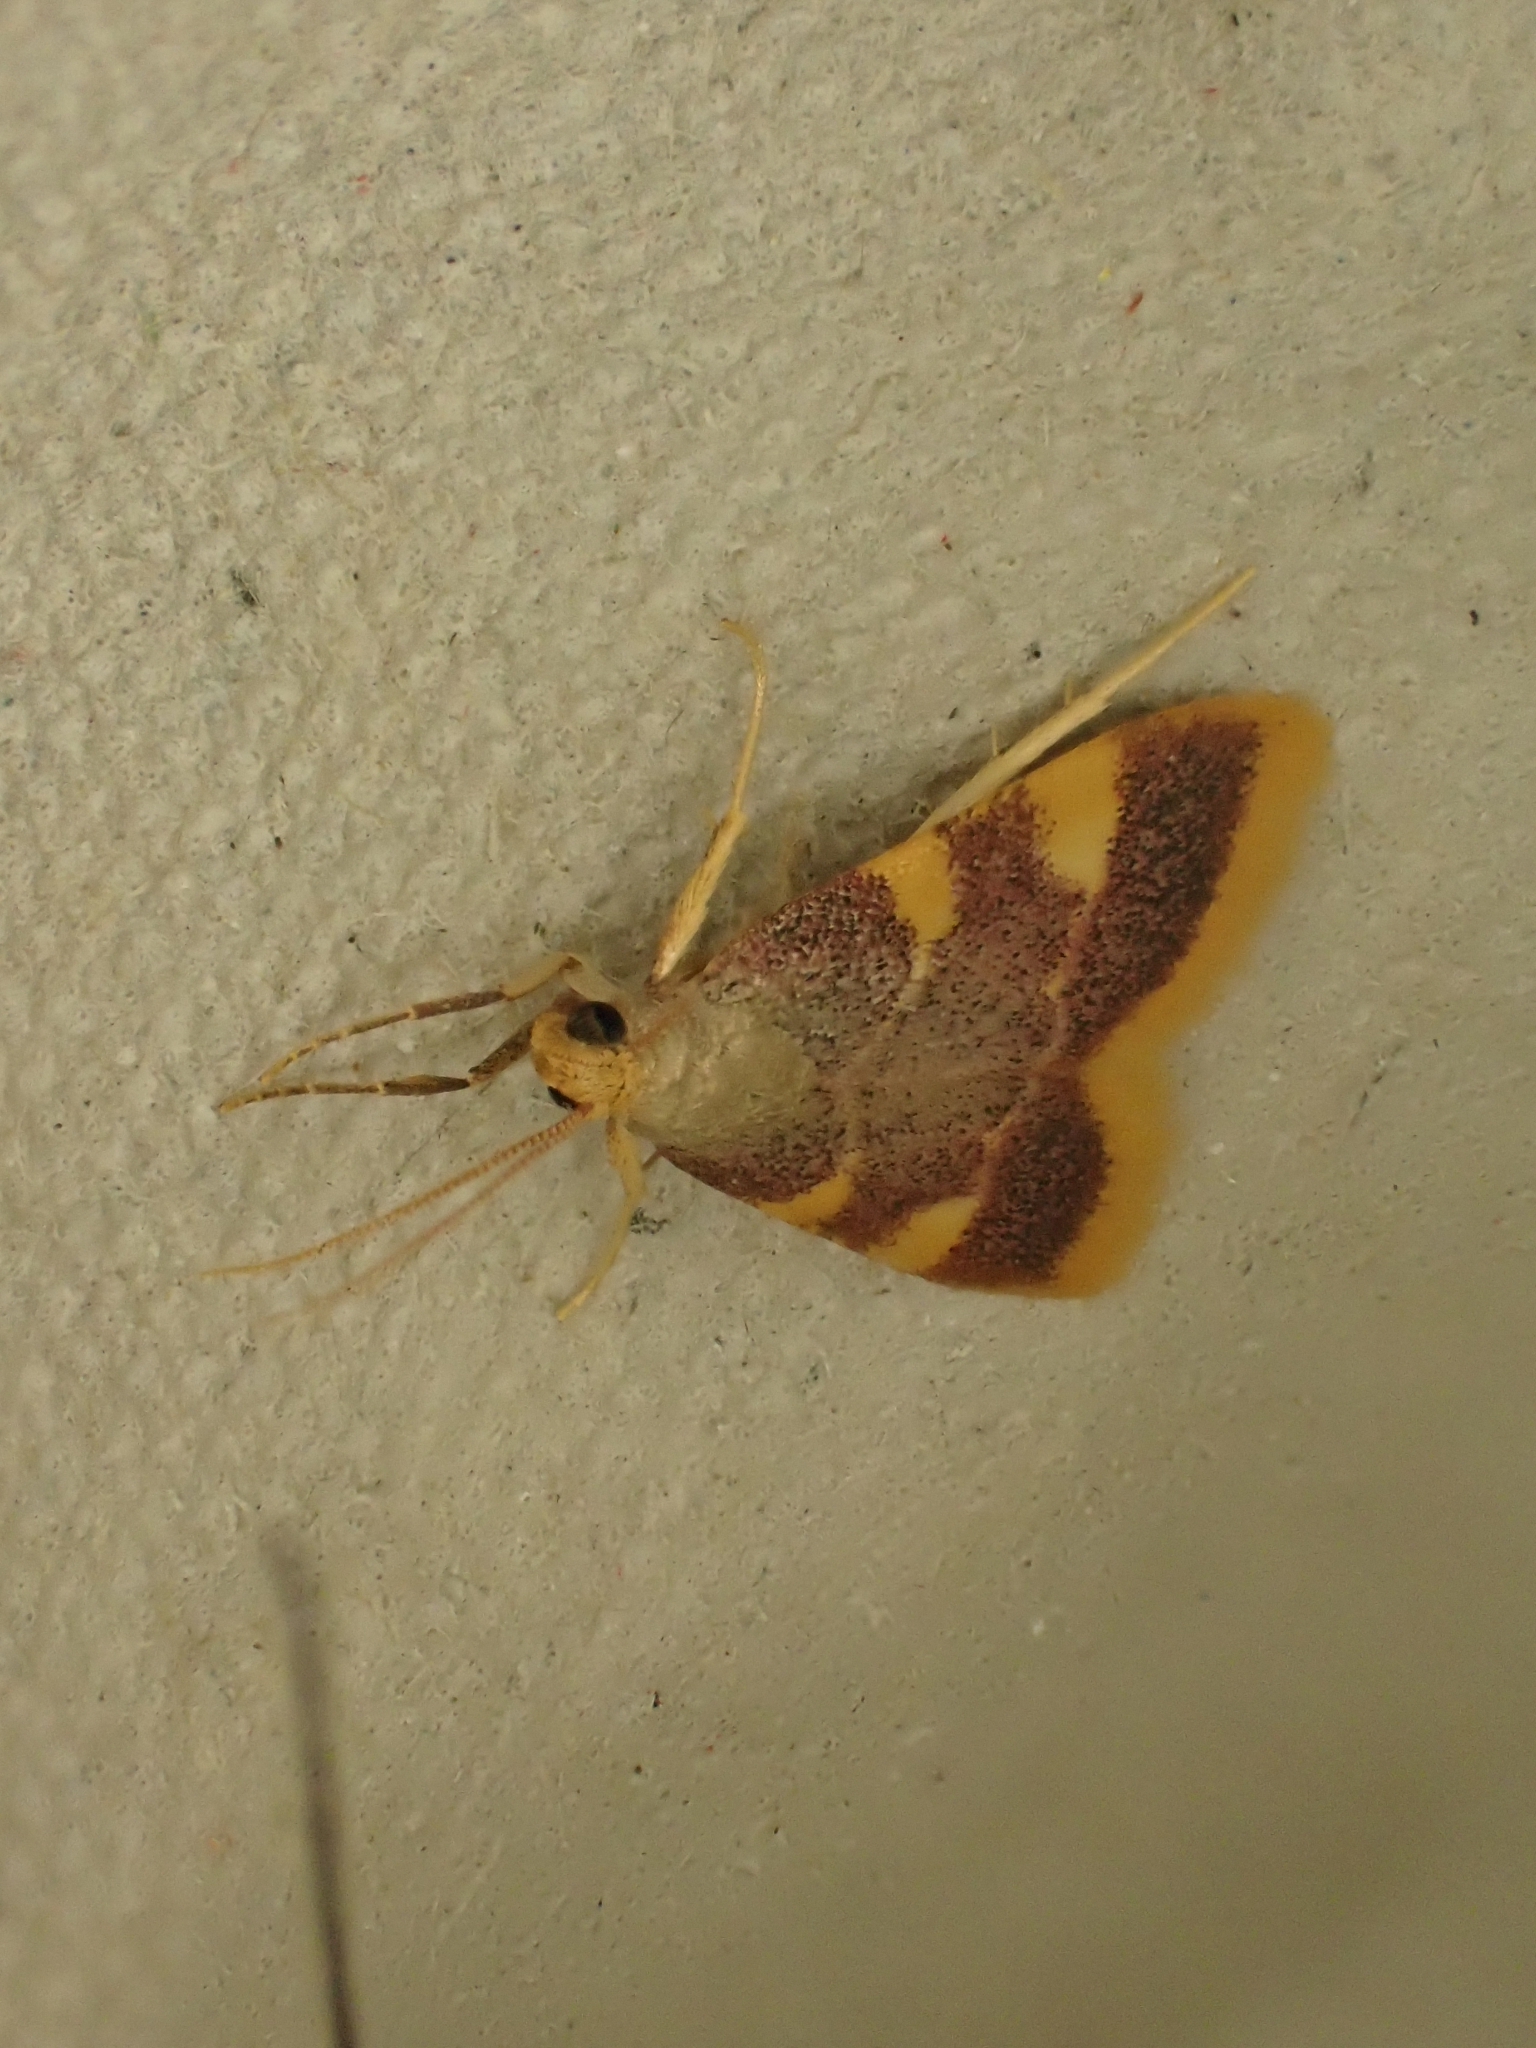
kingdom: Animalia
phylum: Arthropoda
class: Insecta
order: Lepidoptera
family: Pyralidae
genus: Hypsopygia
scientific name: Hypsopygia costalis
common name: Gold triangle
